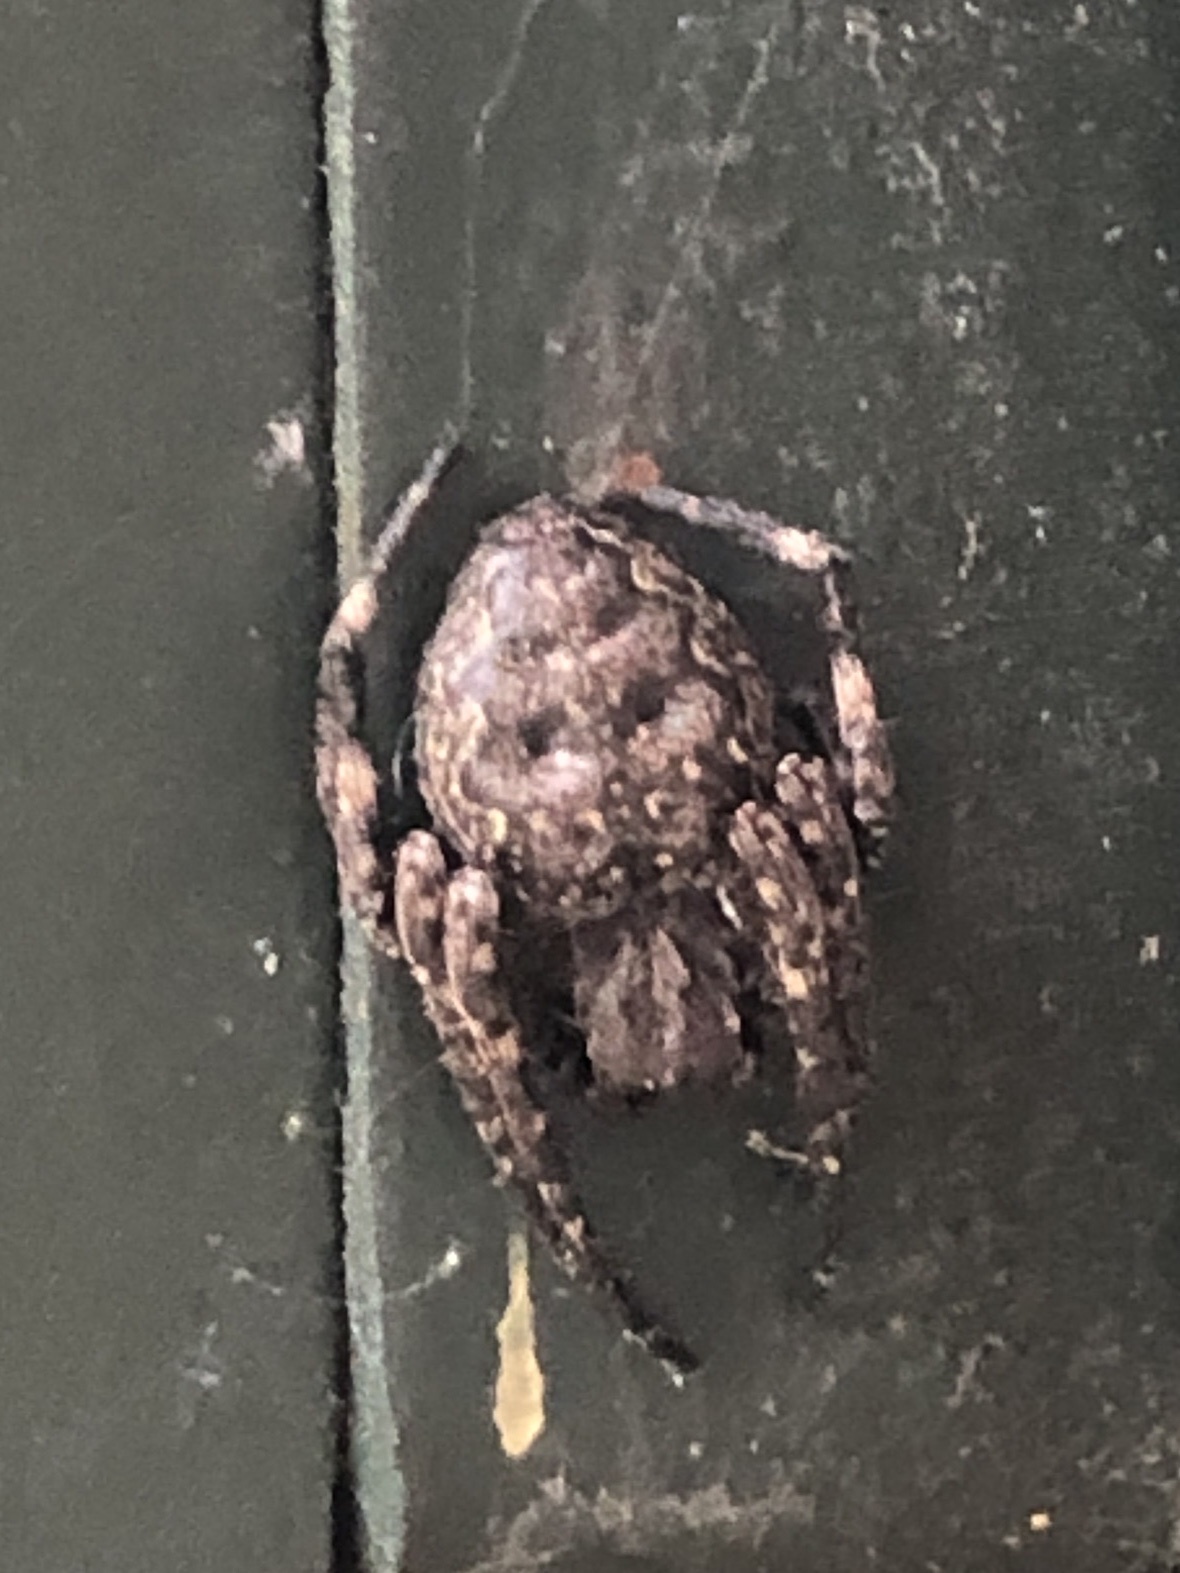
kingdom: Animalia
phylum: Arthropoda
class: Arachnida
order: Araneae
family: Araneidae
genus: Nuctenea
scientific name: Nuctenea umbratica
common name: Toad spider
